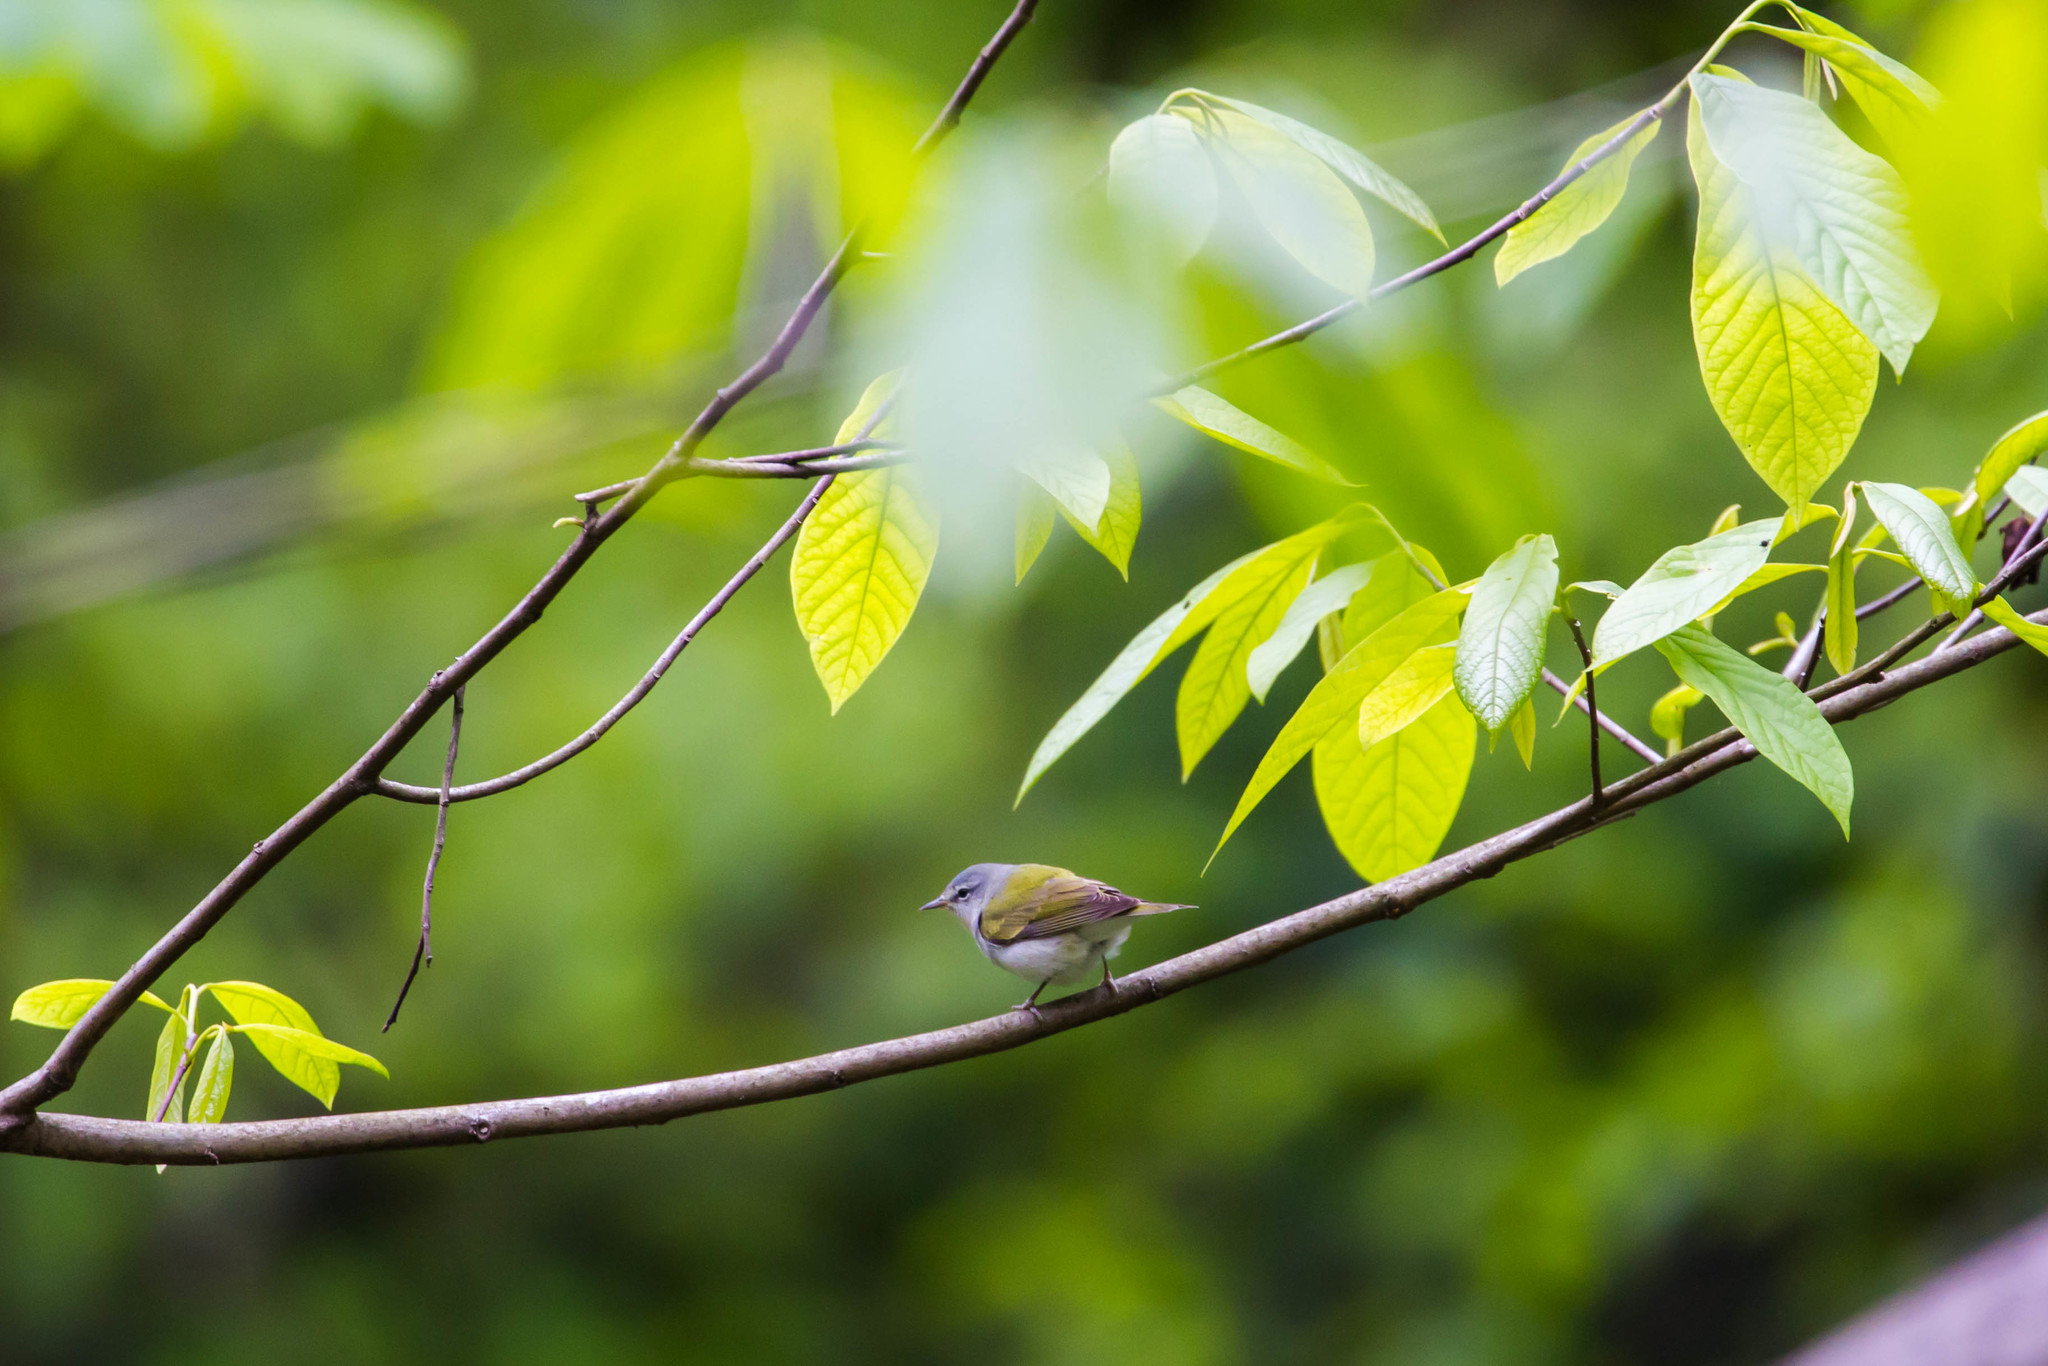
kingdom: Animalia
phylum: Chordata
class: Aves
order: Passeriformes
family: Parulidae
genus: Leiothlypis
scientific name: Leiothlypis peregrina
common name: Tennessee warbler
